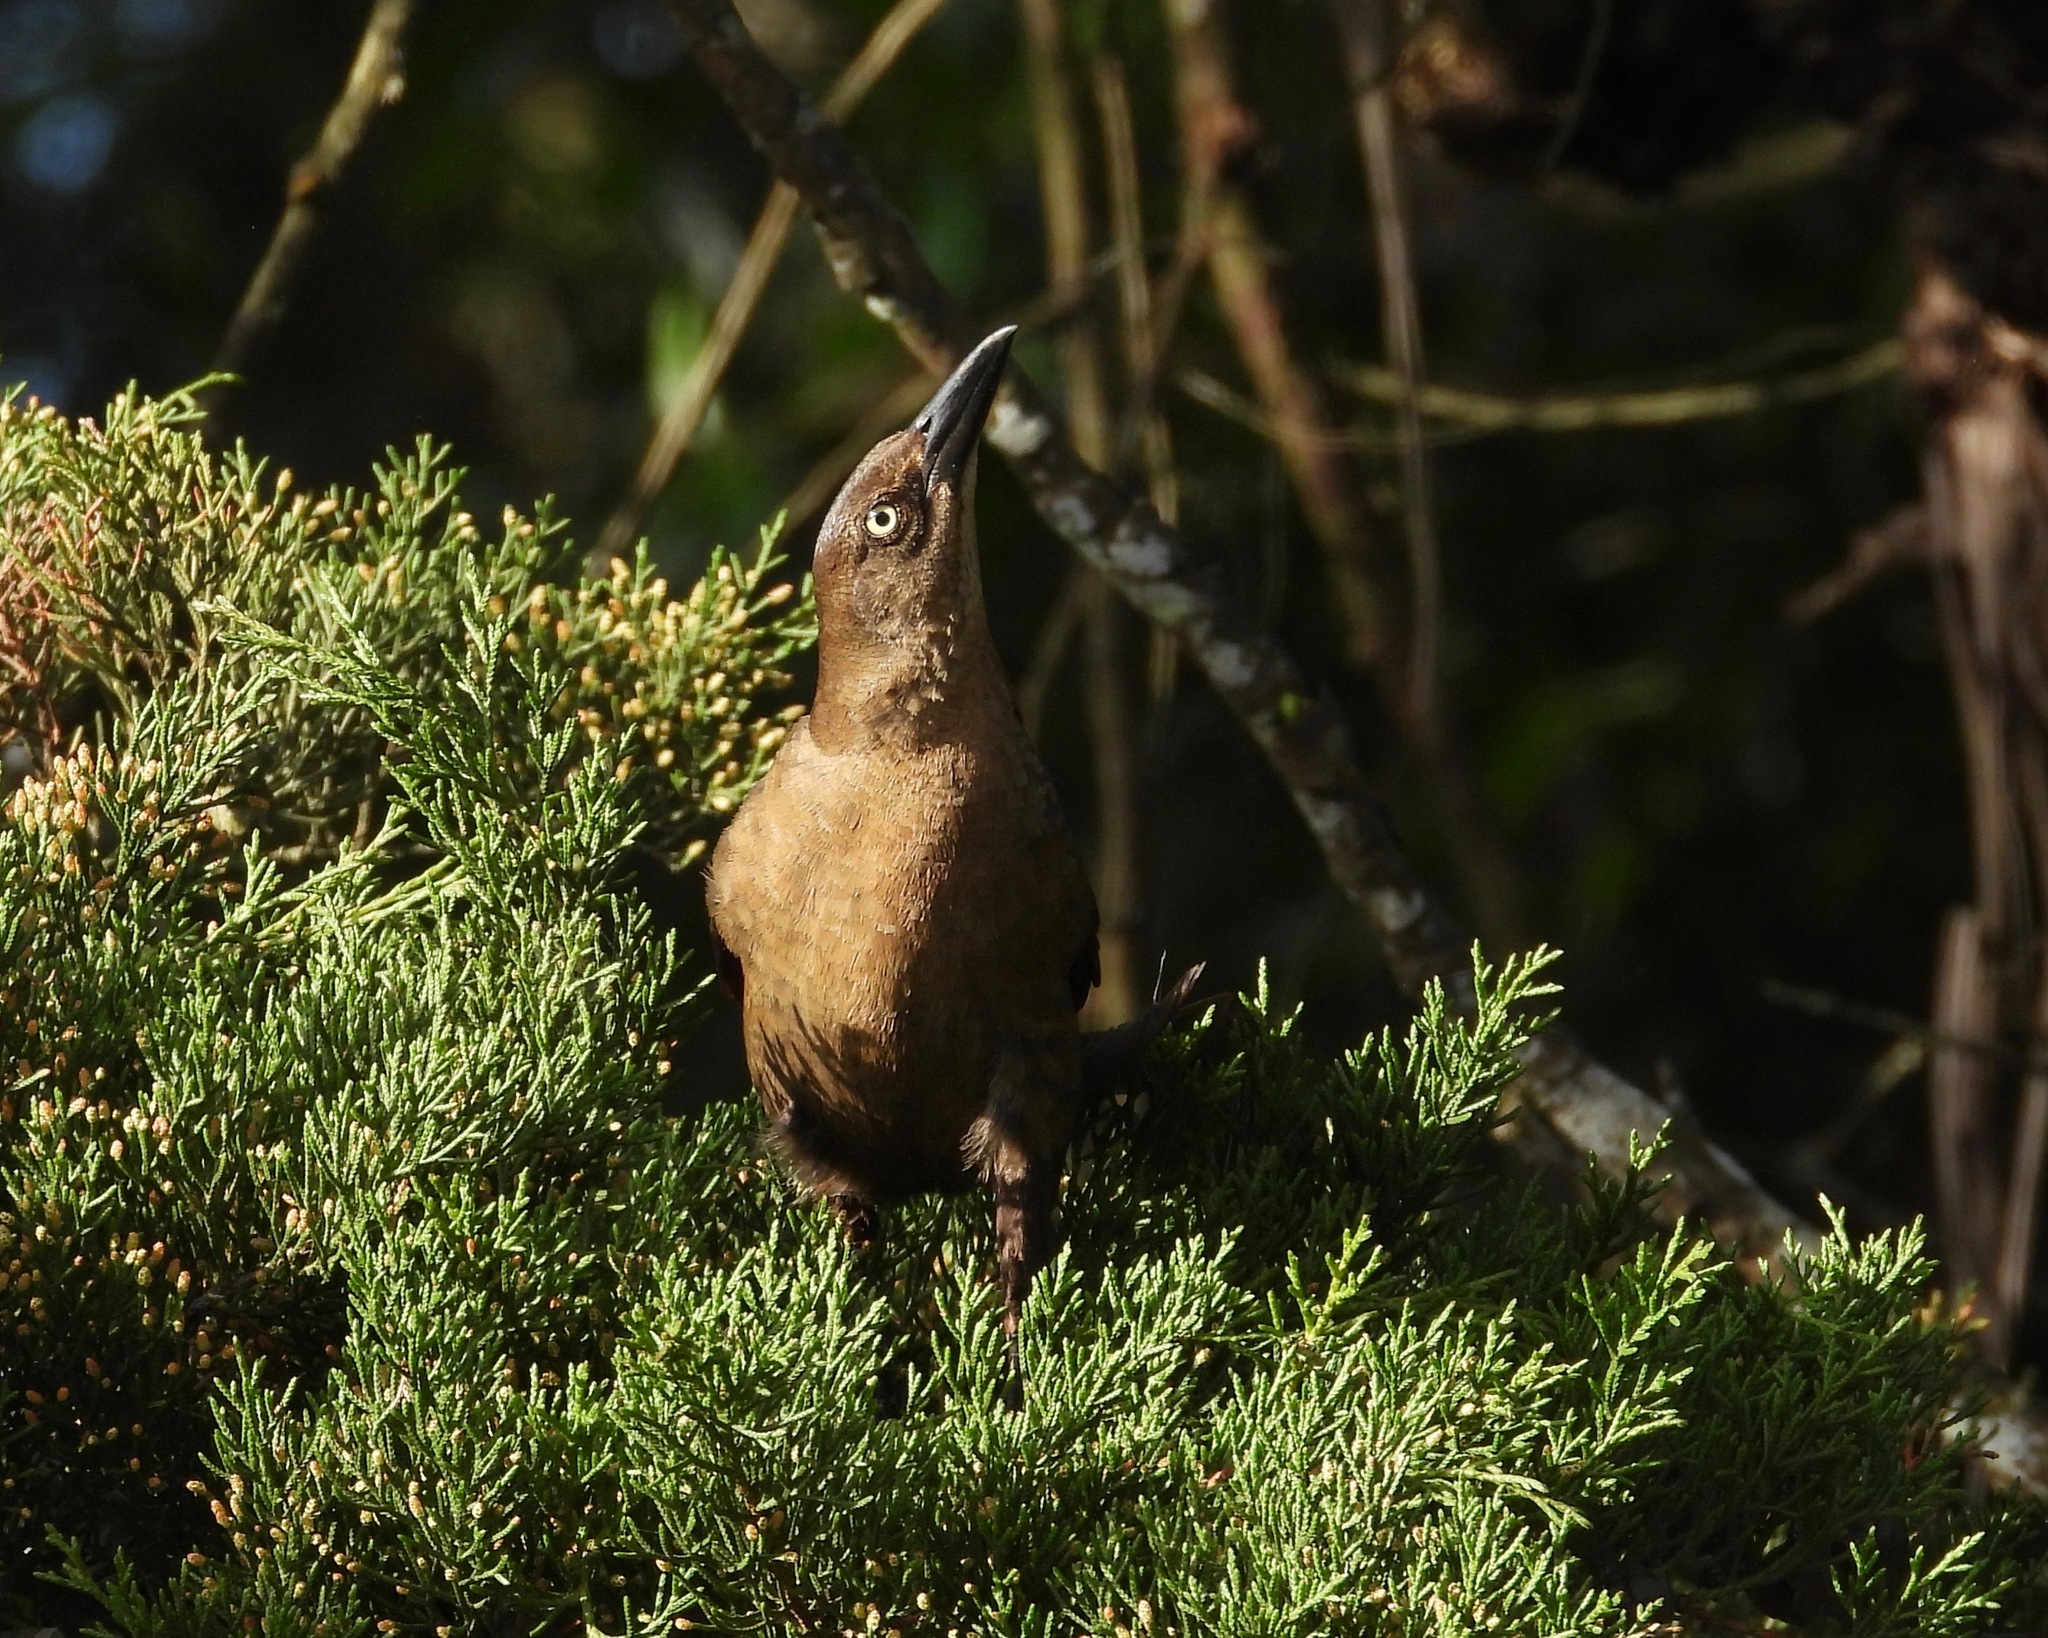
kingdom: Animalia
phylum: Chordata
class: Aves
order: Passeriformes
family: Icteridae
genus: Quiscalus
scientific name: Quiscalus mexicanus
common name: Great-tailed grackle
